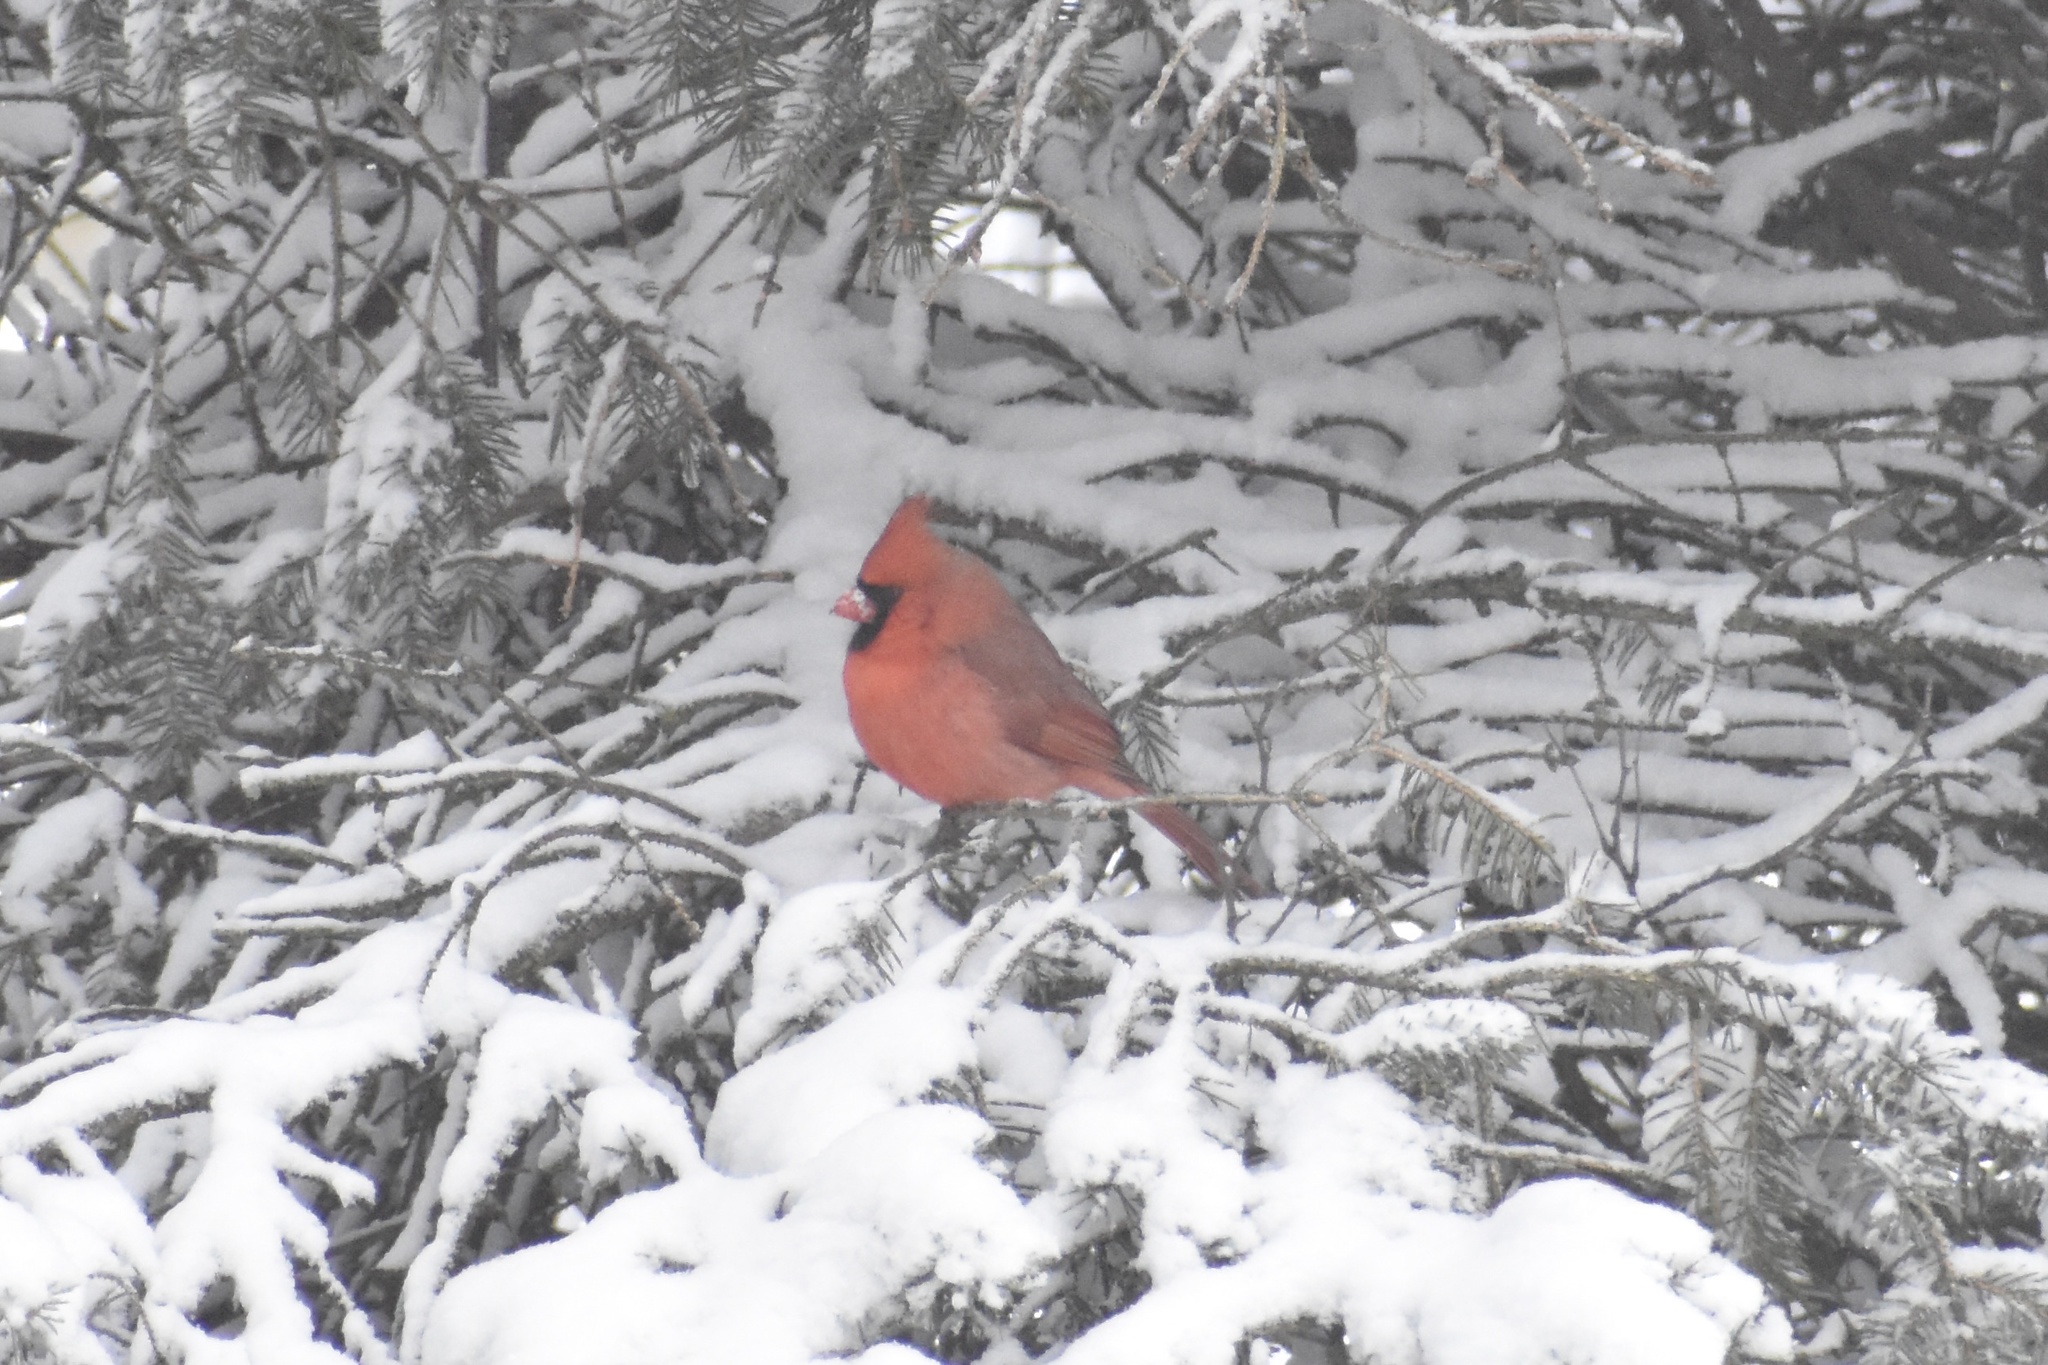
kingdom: Animalia
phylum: Chordata
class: Aves
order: Passeriformes
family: Cardinalidae
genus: Cardinalis
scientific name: Cardinalis cardinalis
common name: Northern cardinal
